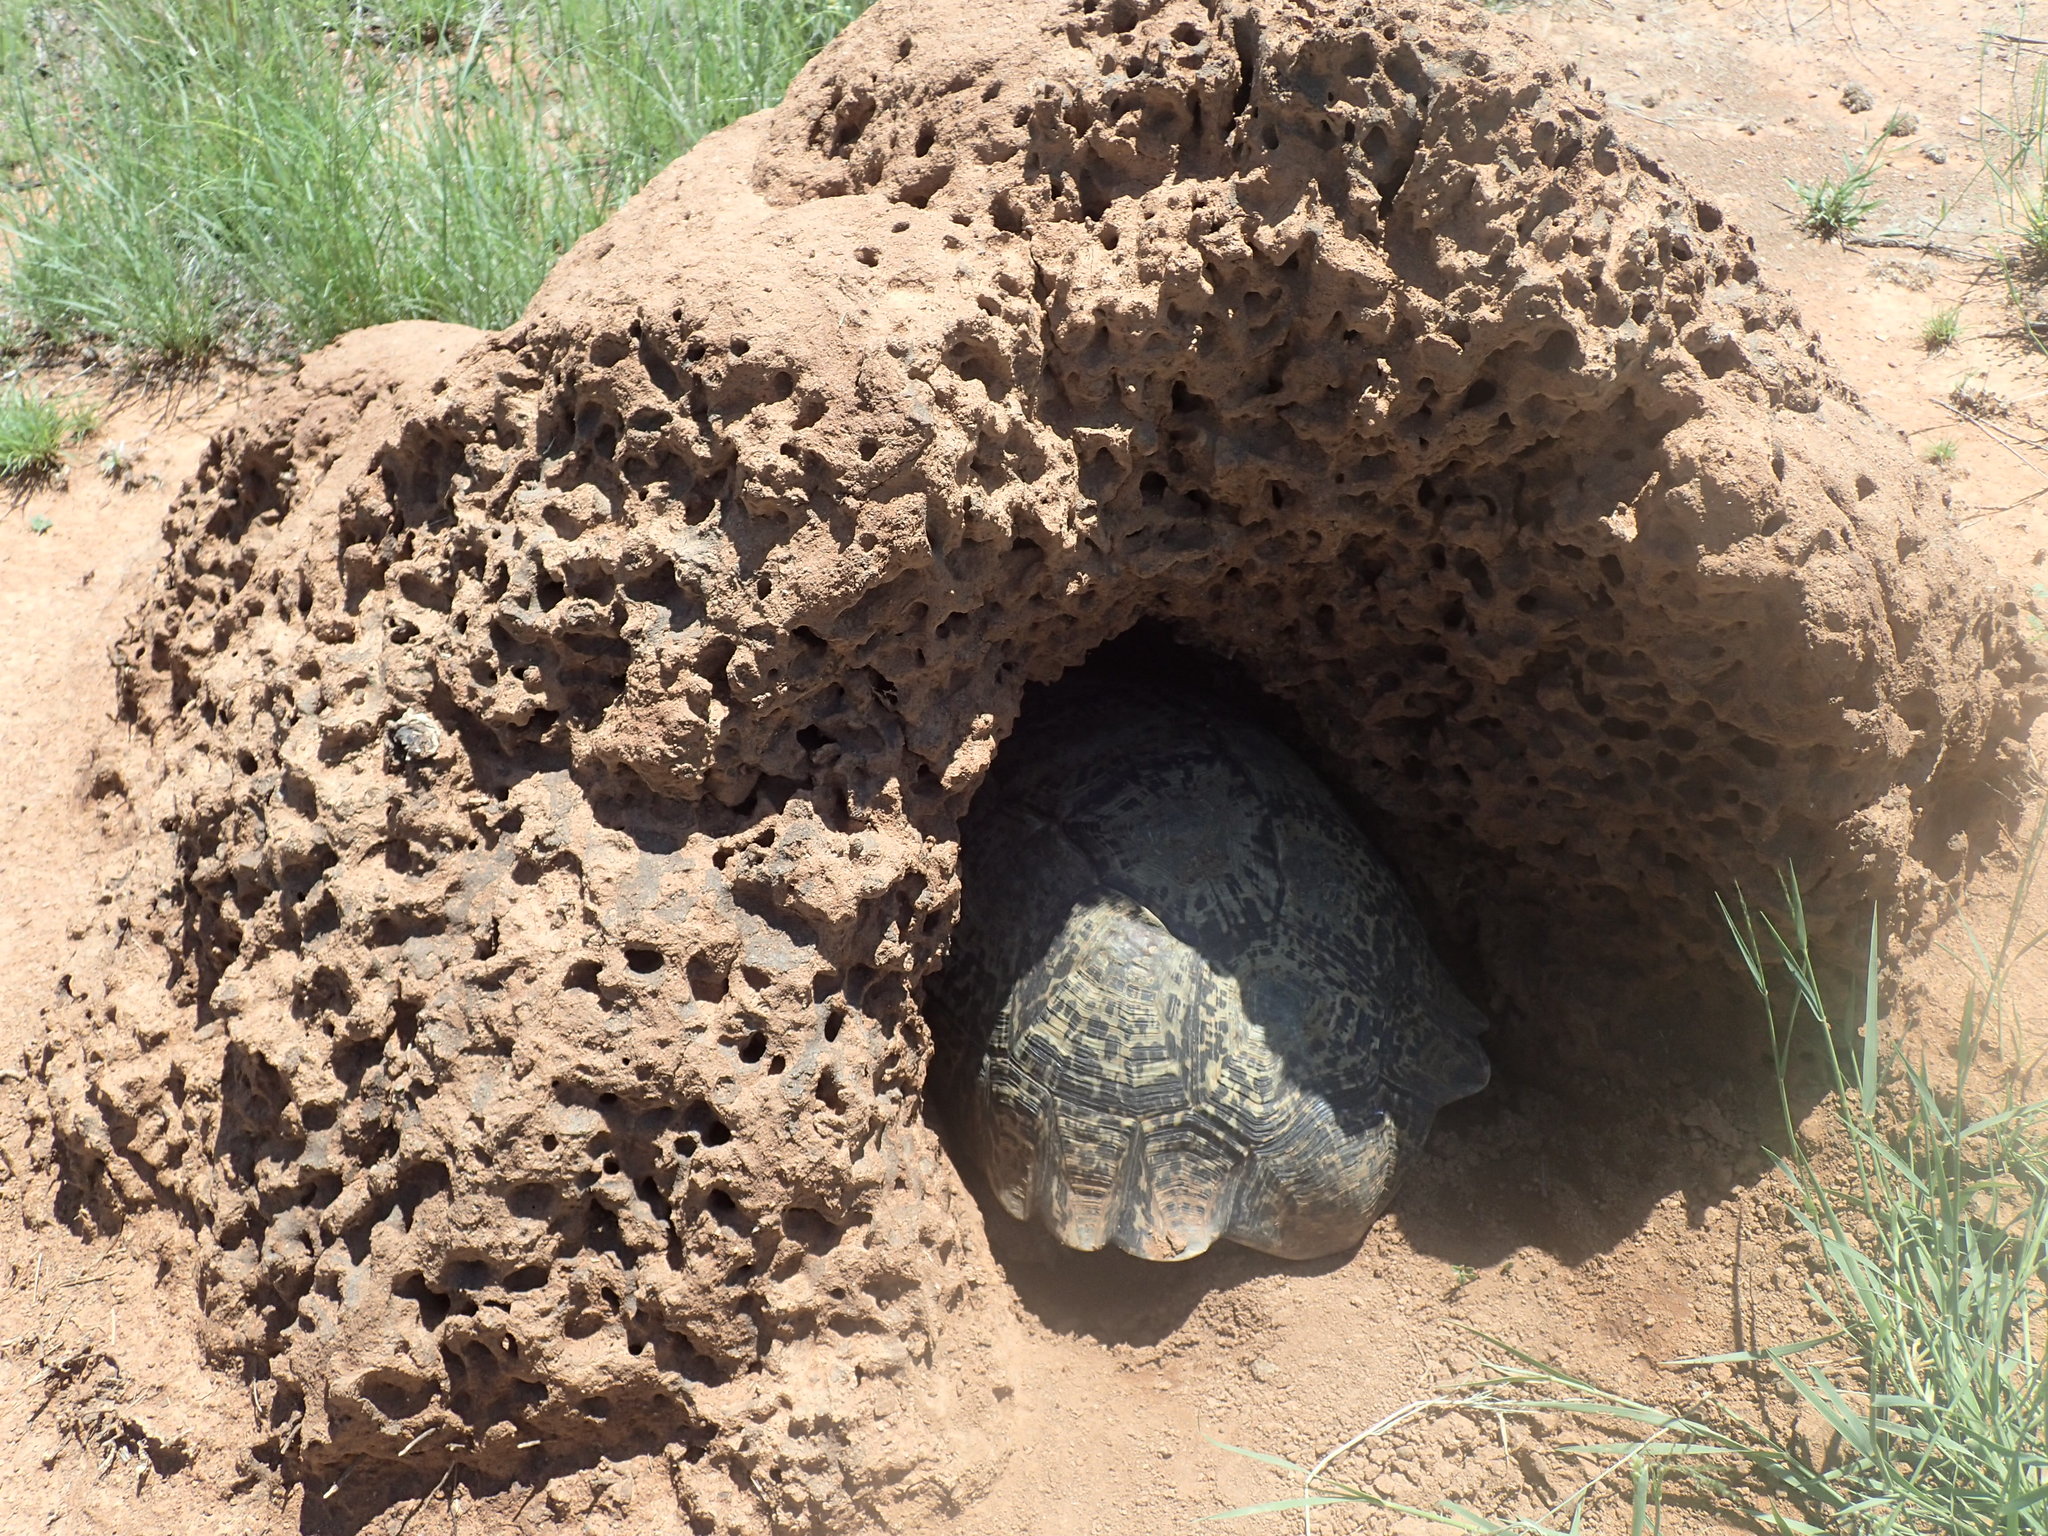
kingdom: Animalia
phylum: Chordata
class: Testudines
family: Testudinidae
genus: Stigmochelys
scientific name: Stigmochelys pardalis
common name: Leopard tortoise
